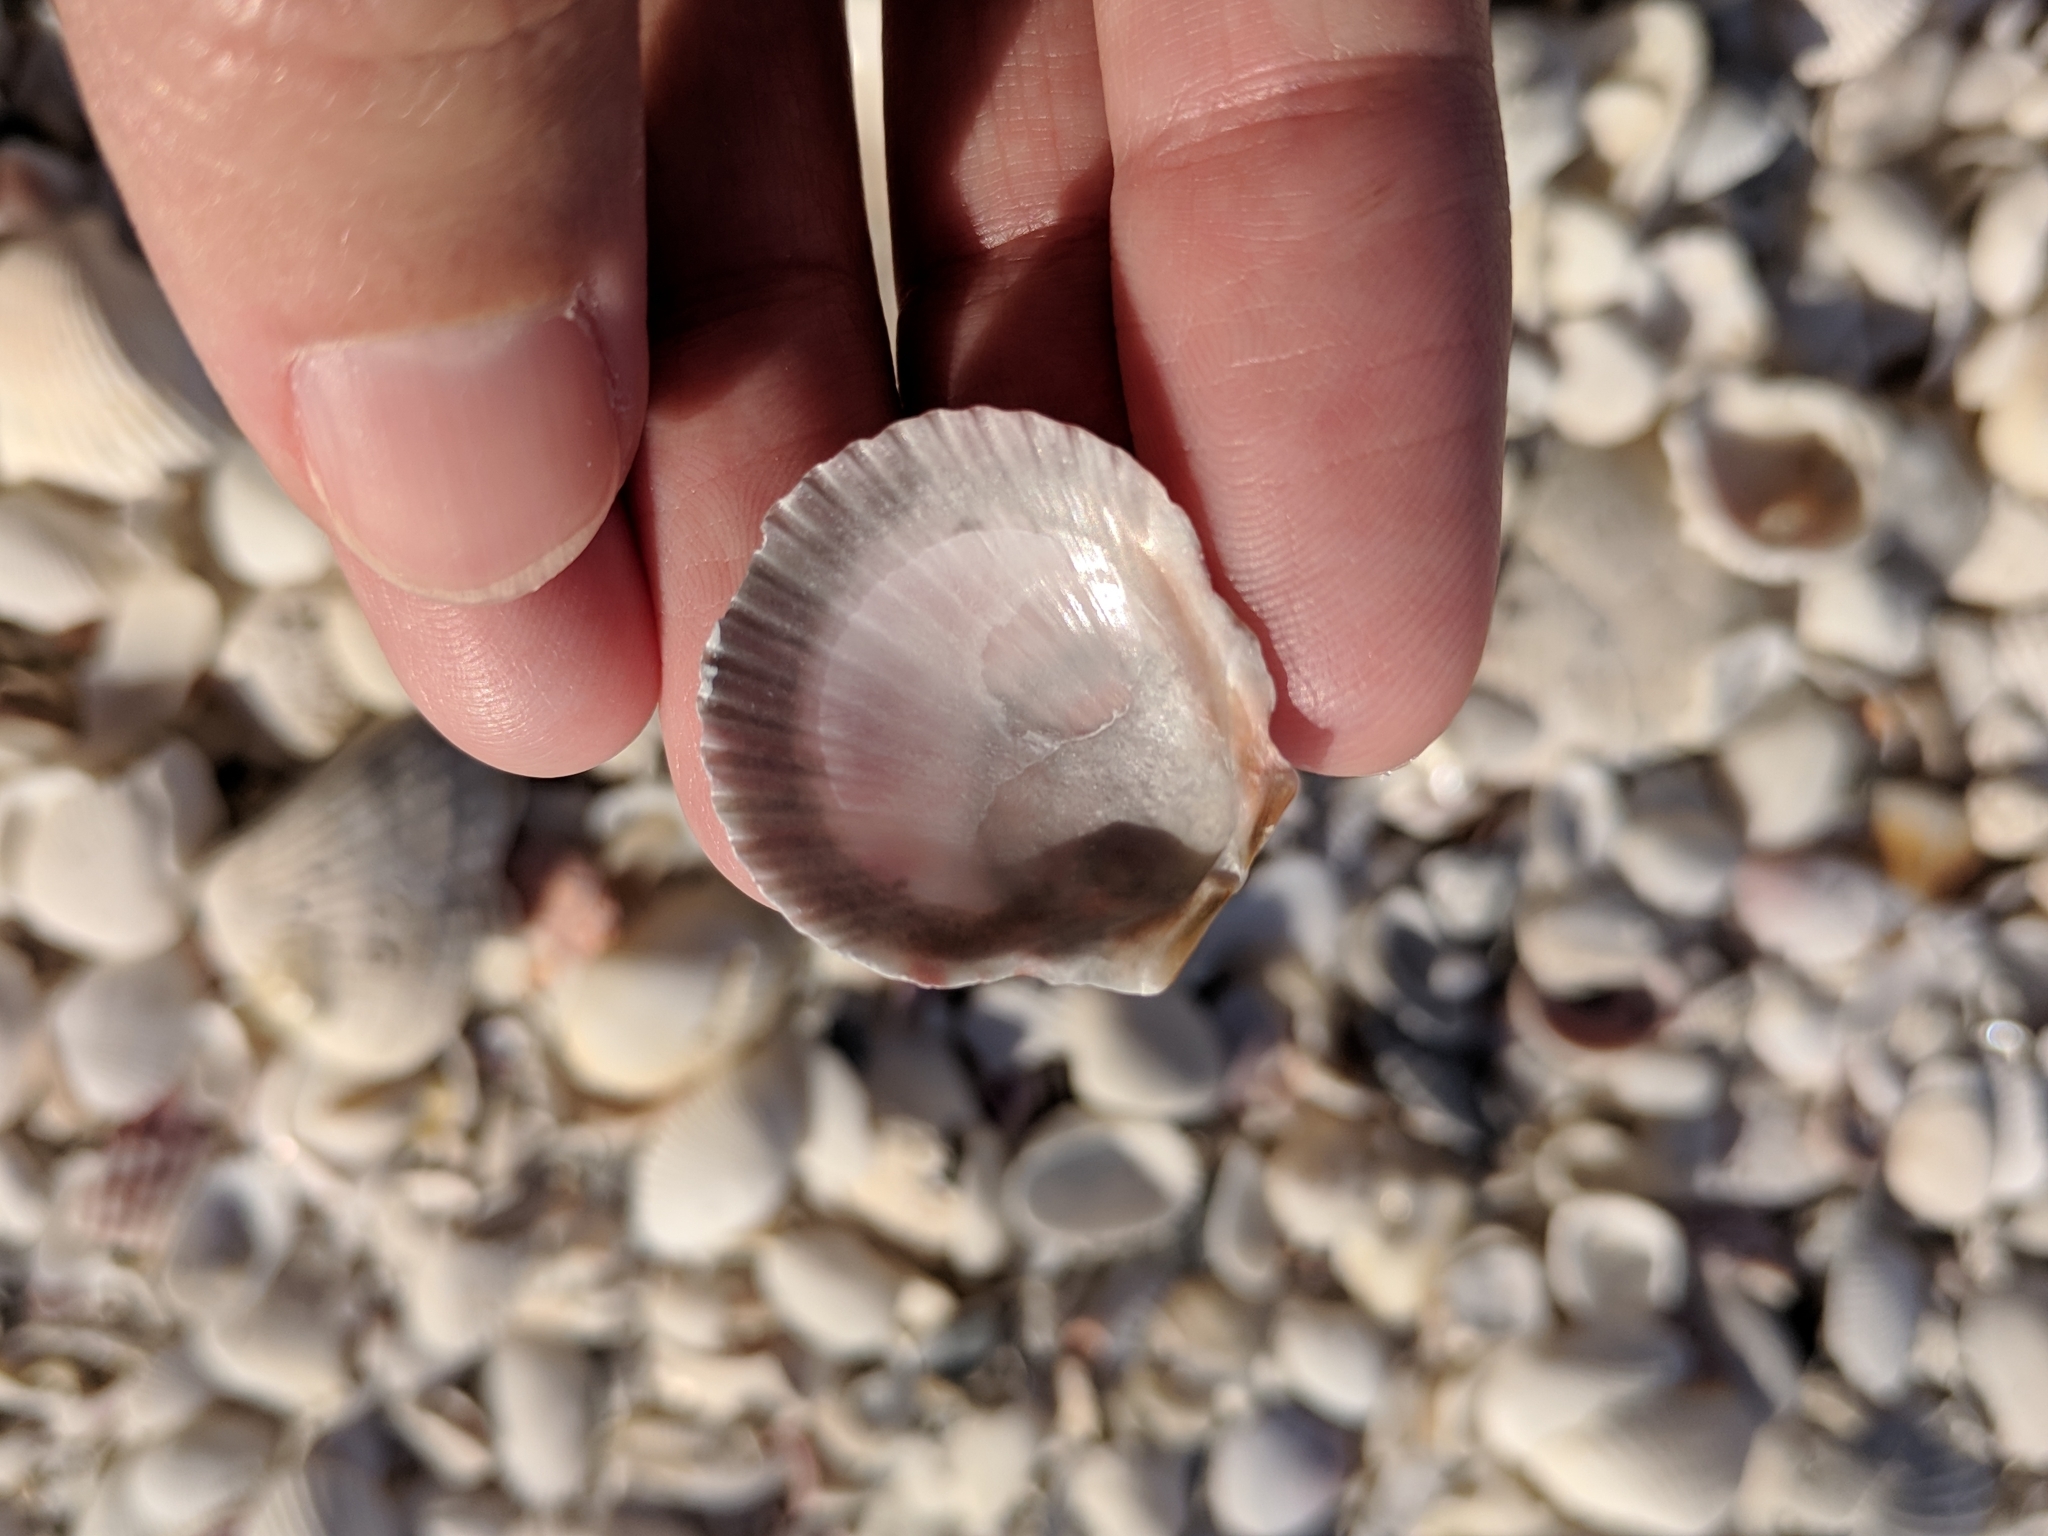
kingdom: Animalia
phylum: Mollusca
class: Bivalvia
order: Pectinida
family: Pectinidae
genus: Argopecten
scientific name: Argopecten gibbus
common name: Atlantic calico scallop
